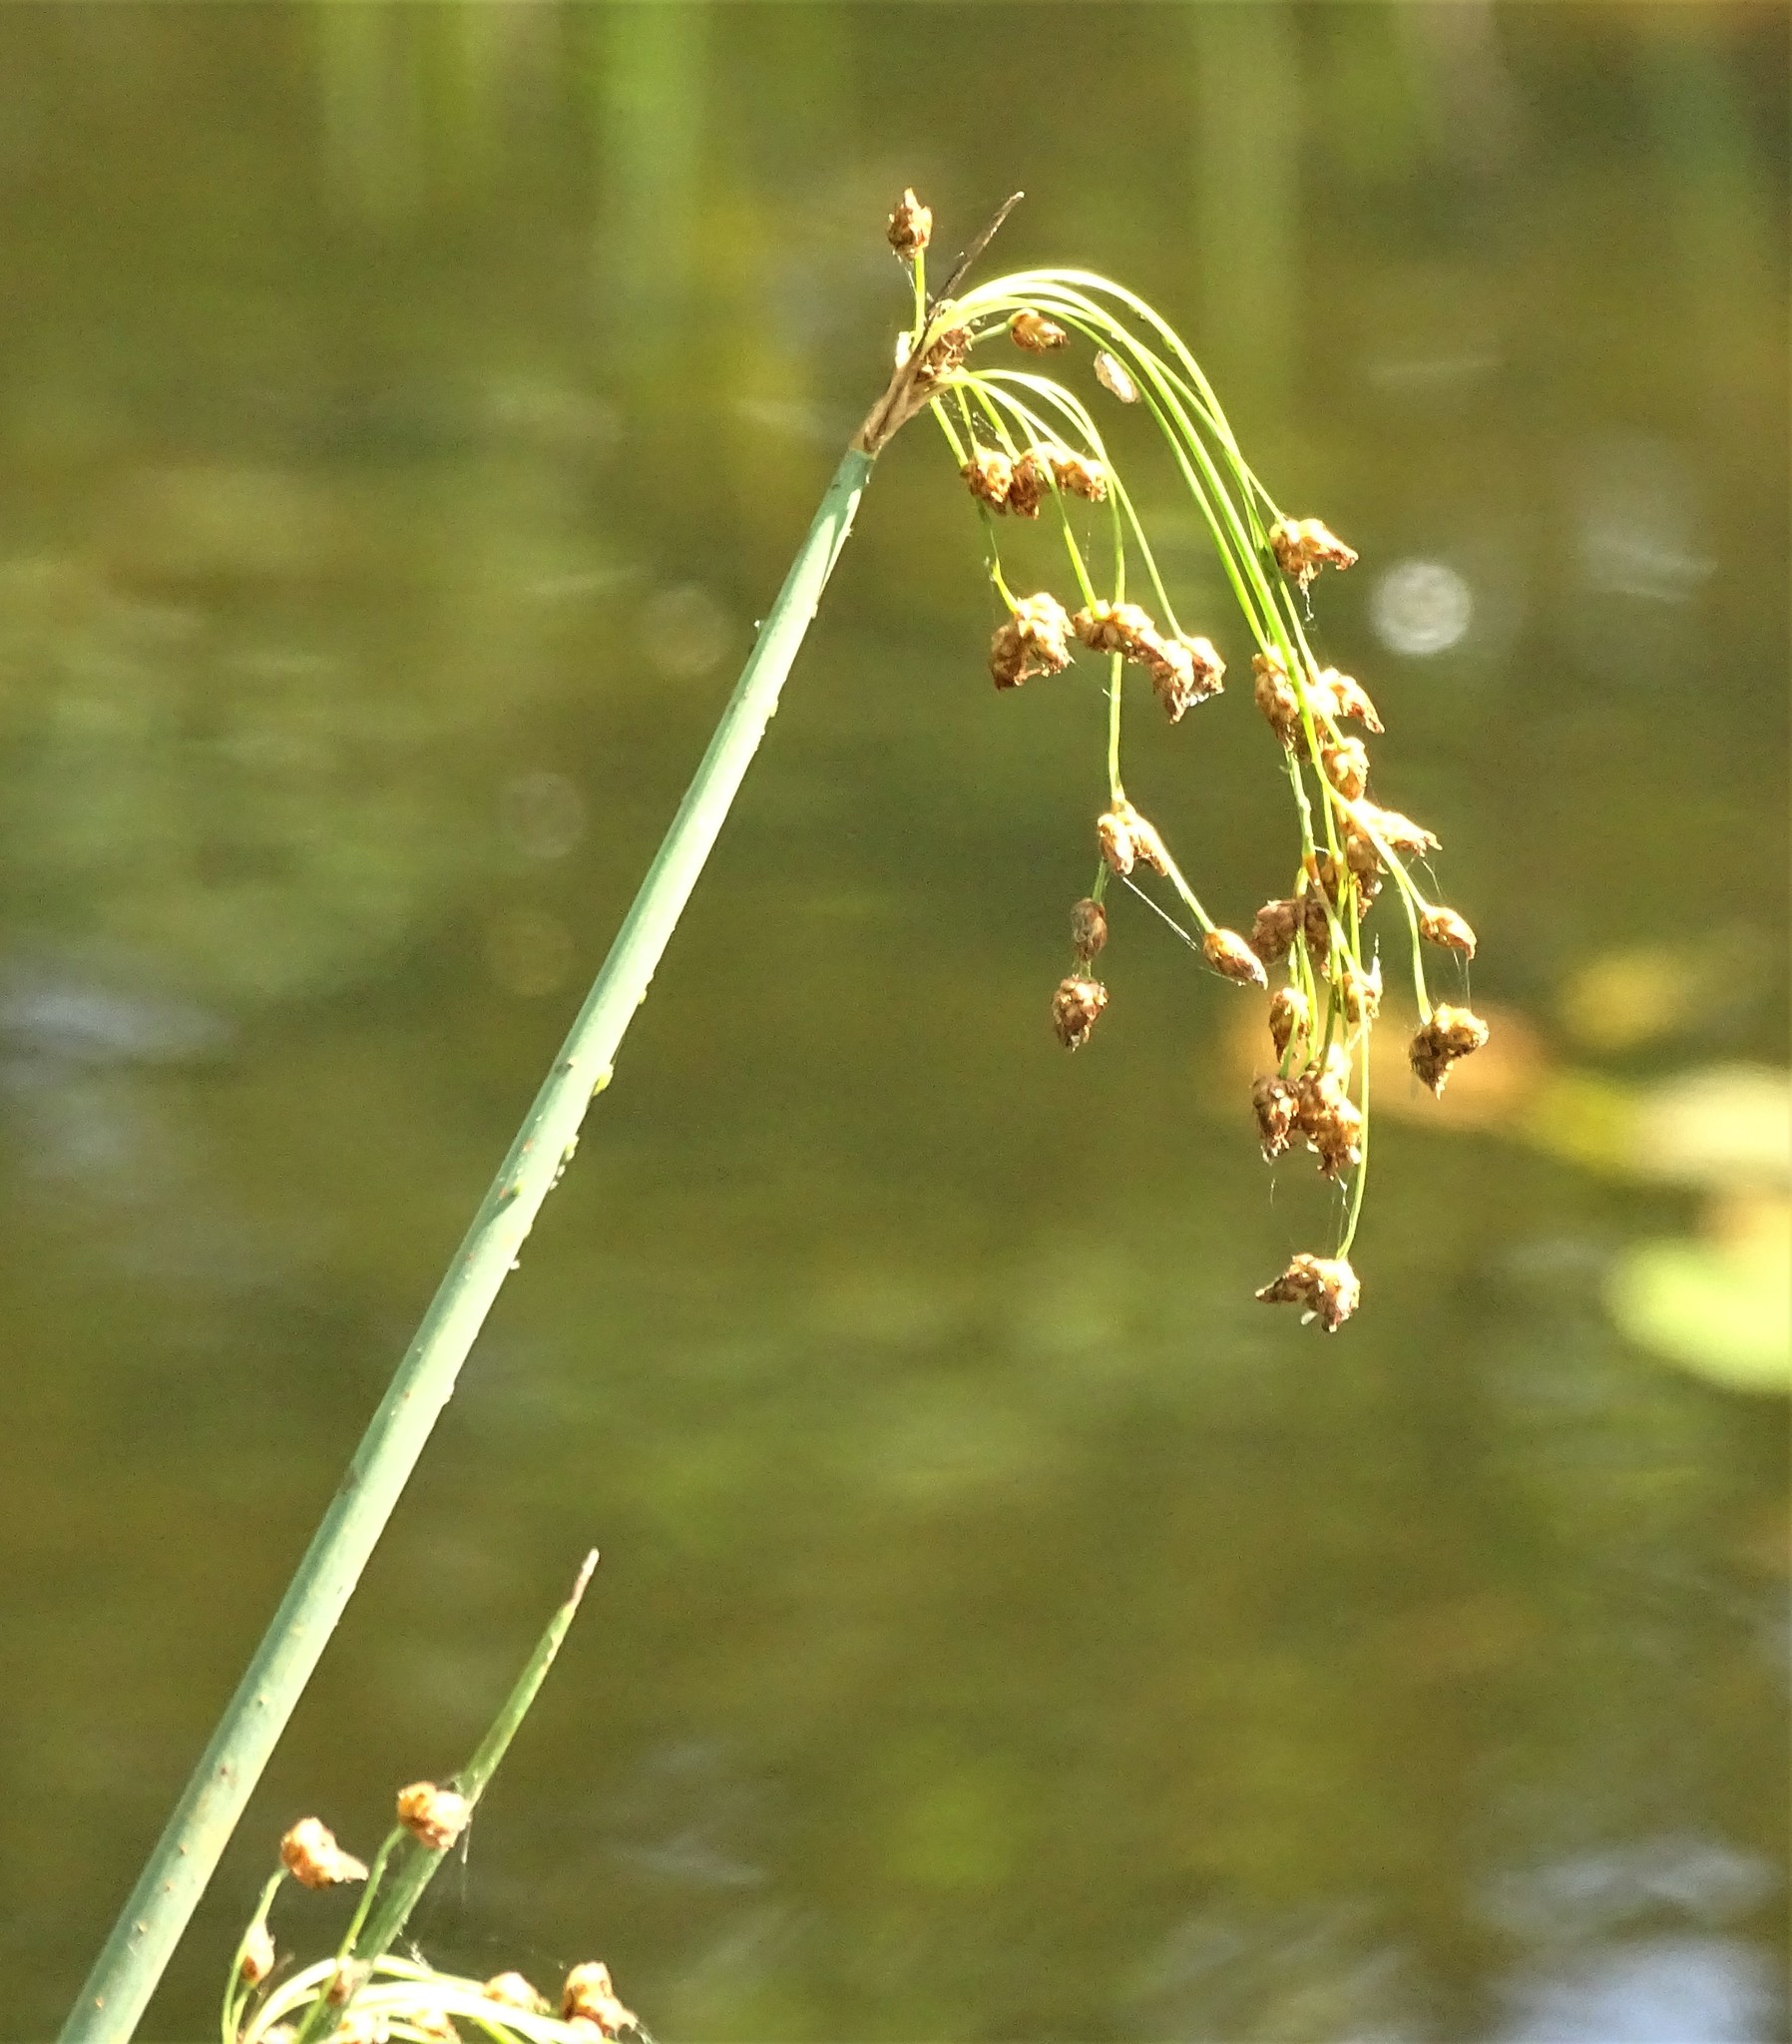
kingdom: Plantae
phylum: Tracheophyta
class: Liliopsida
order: Poales
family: Cyperaceae
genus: Schoenoplectus
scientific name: Schoenoplectus tabernaemontani
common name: Grey club-rush
